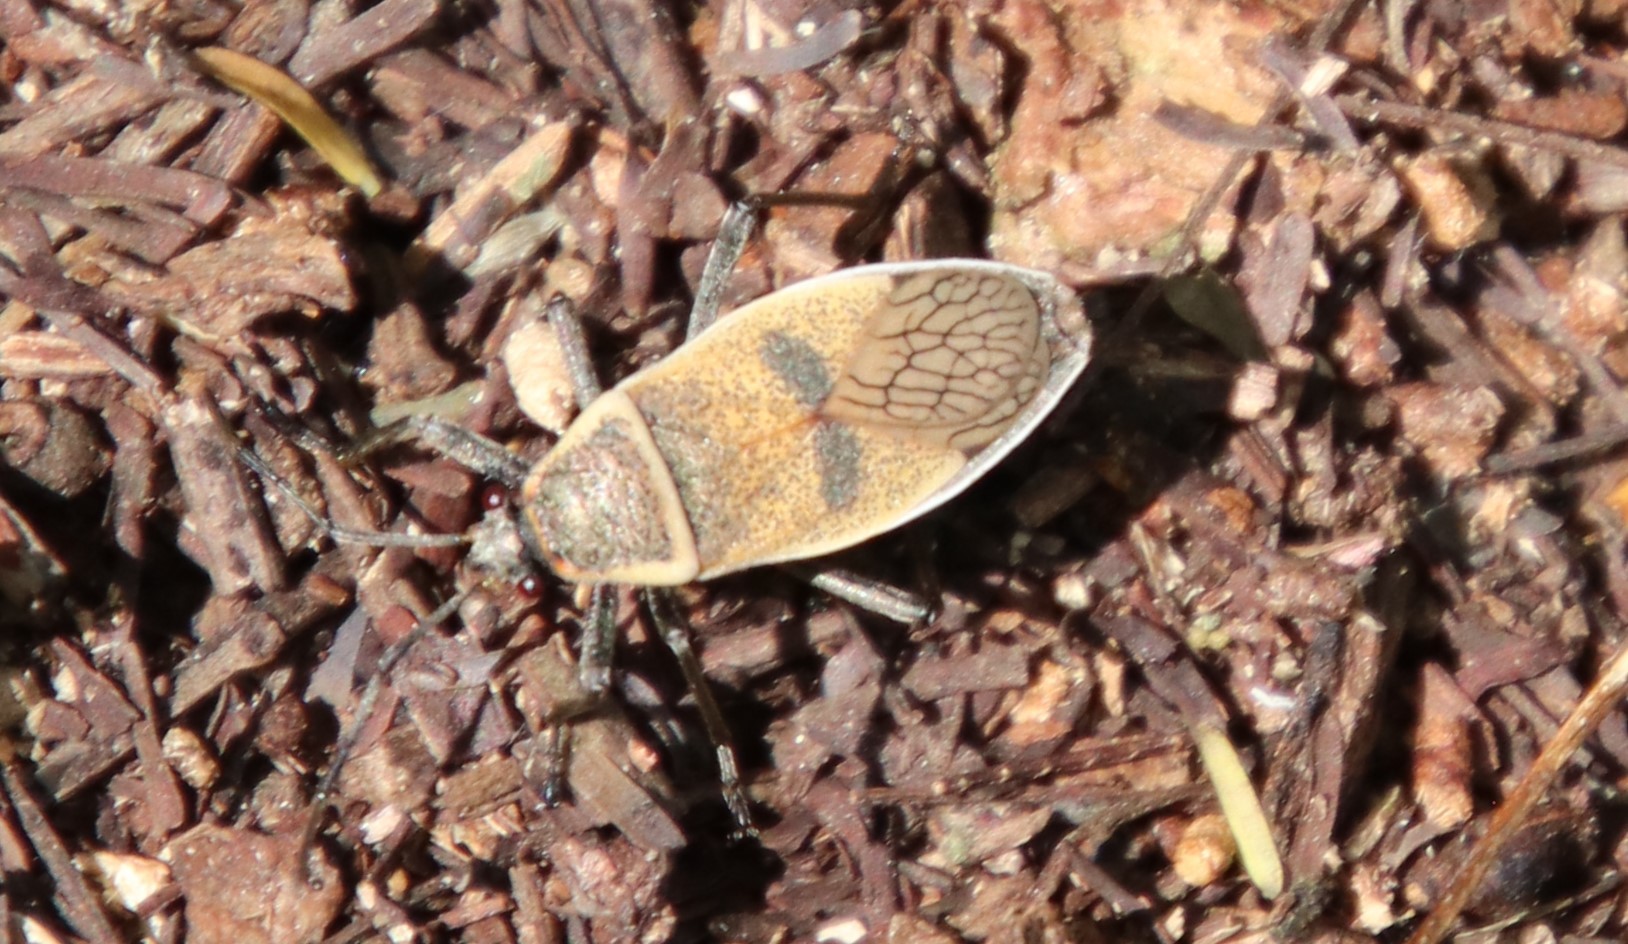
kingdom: Animalia
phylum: Arthropoda
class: Insecta
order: Hemiptera
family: Largidae
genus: Largus
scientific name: Largus maculatus
